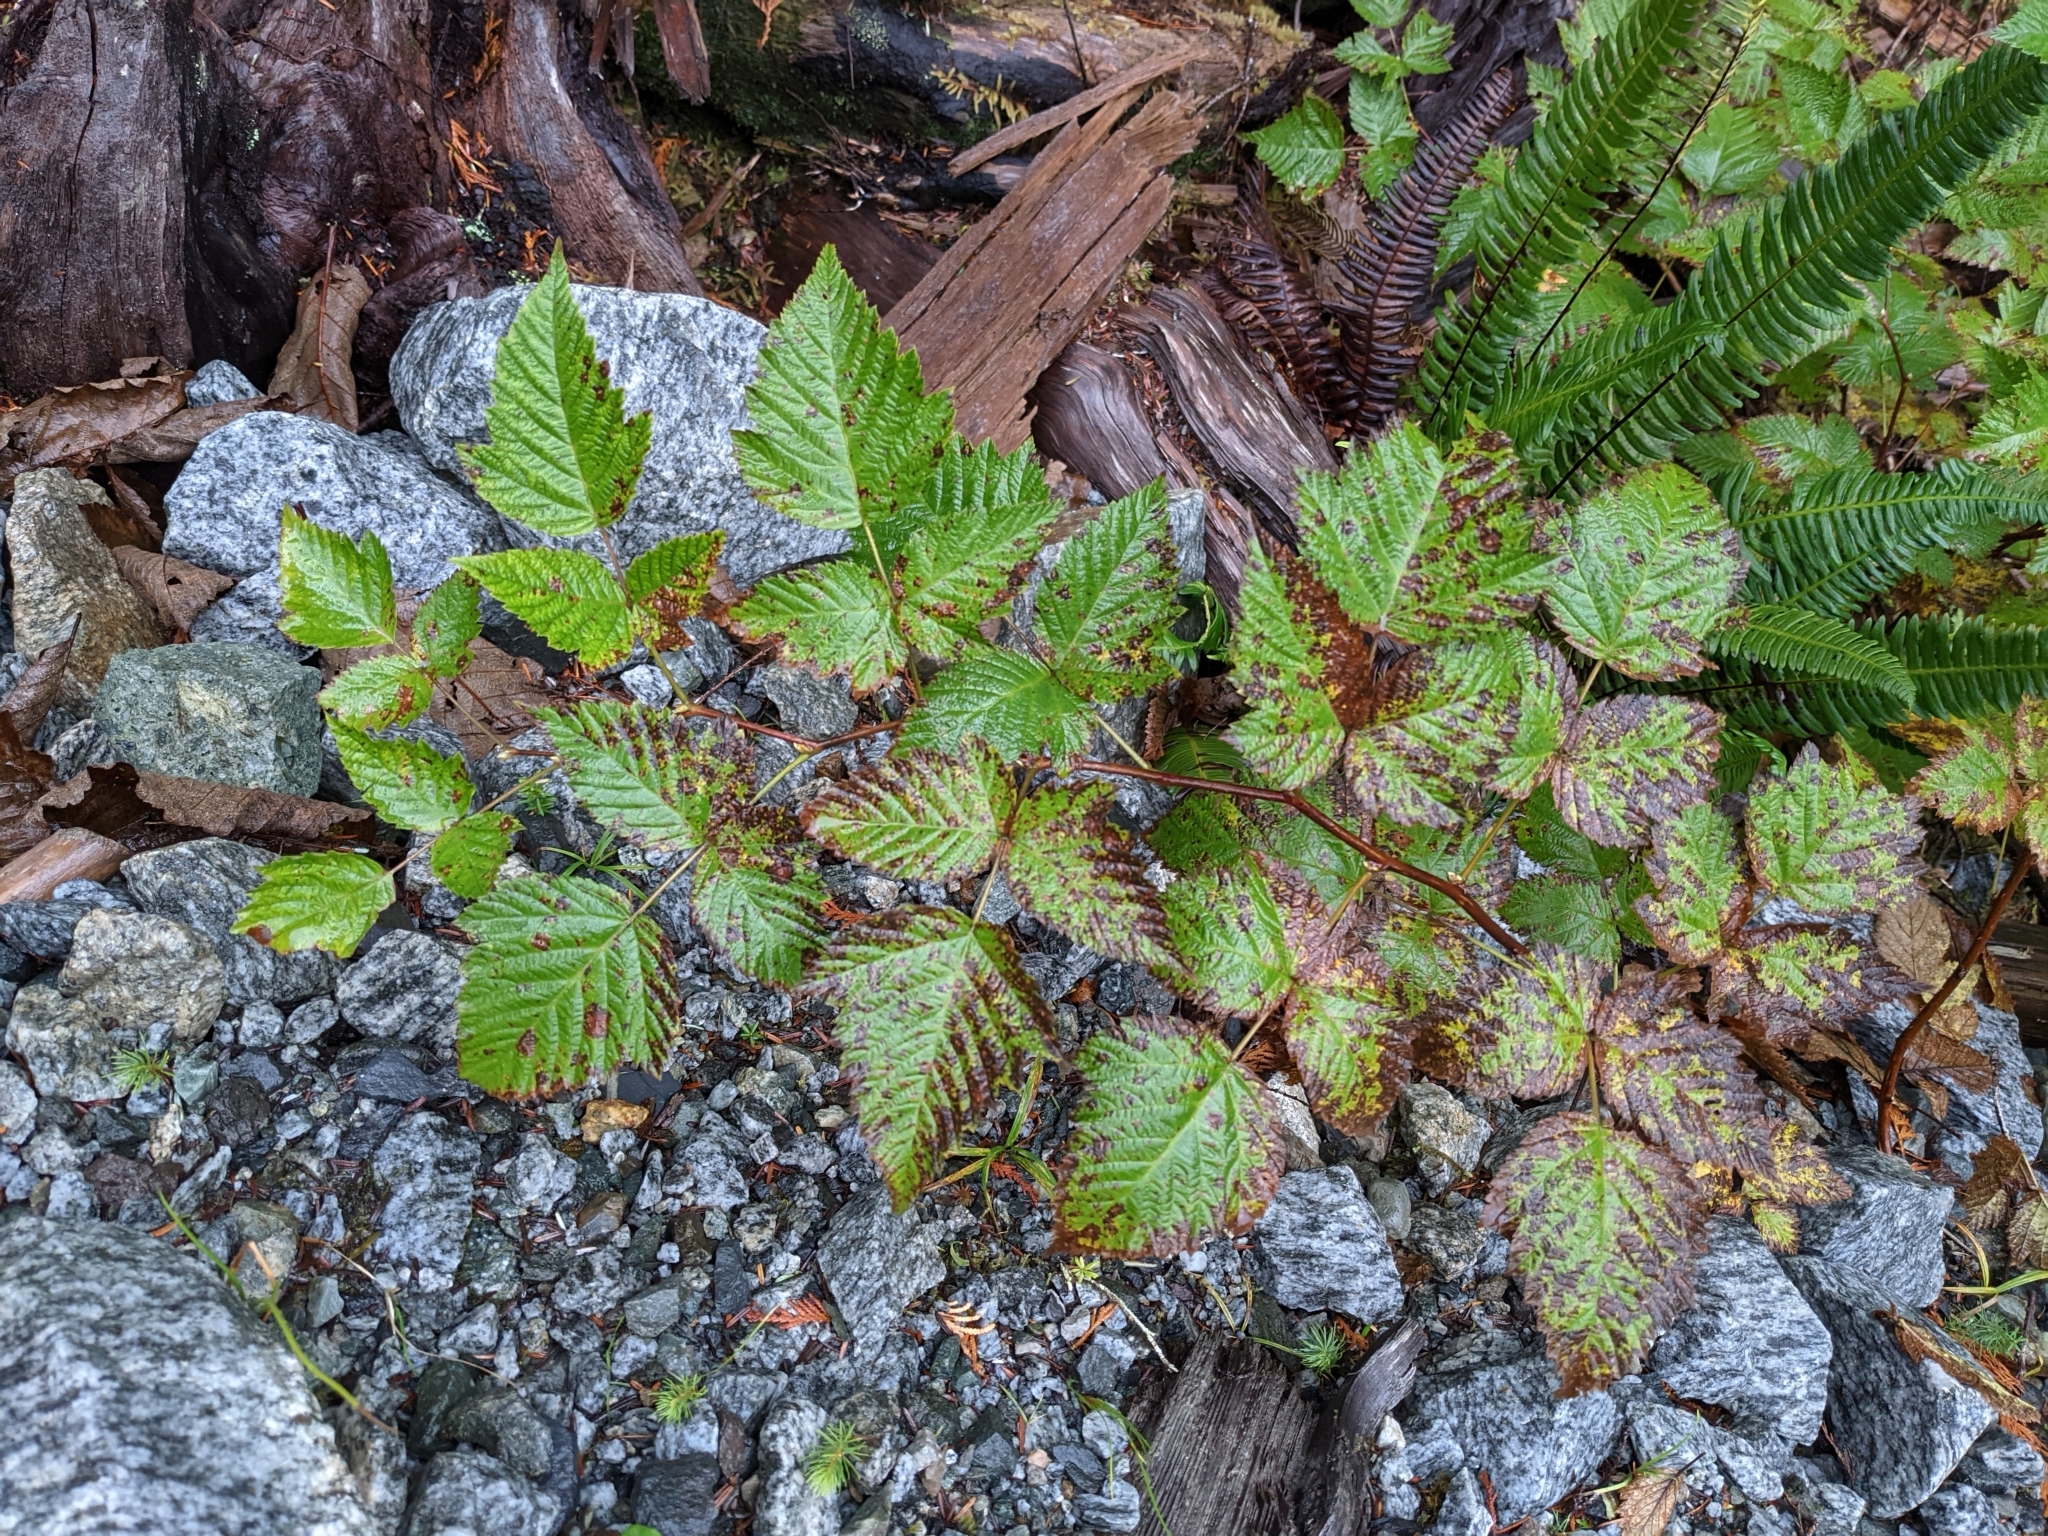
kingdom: Plantae
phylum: Tracheophyta
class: Magnoliopsida
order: Rosales
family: Rosaceae
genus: Rubus
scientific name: Rubus spectabilis
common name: Salmonberry
